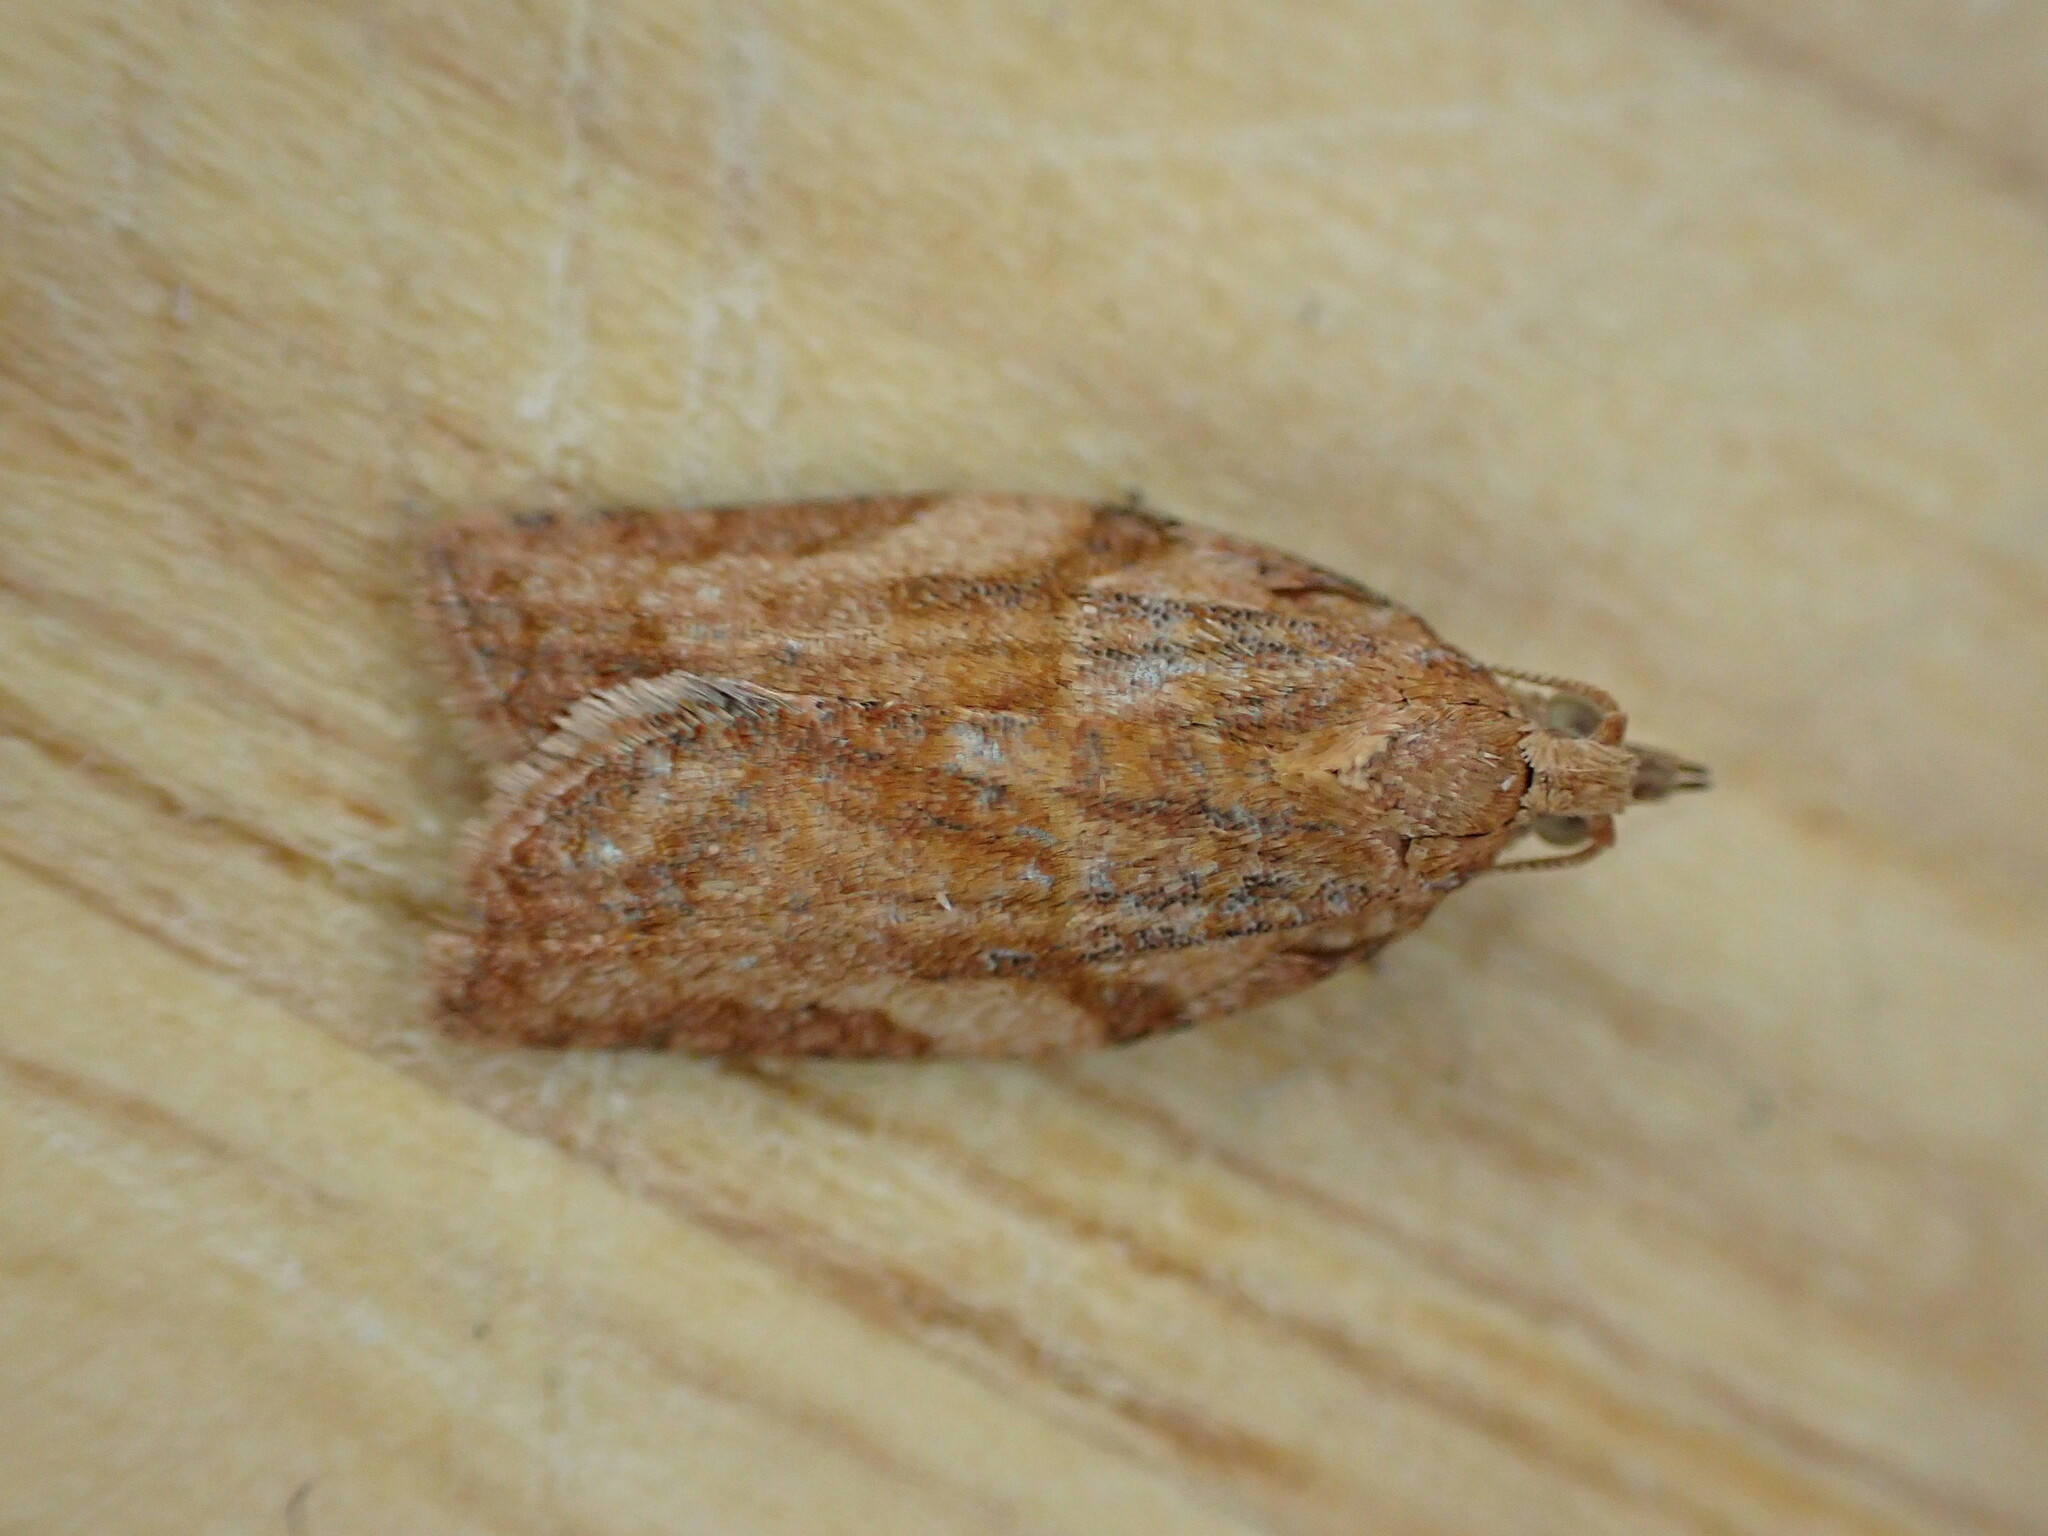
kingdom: Animalia
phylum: Arthropoda
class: Insecta
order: Lepidoptera
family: Tortricidae
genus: Epiphyas
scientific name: Epiphyas postvittana
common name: Light brown apple moth
